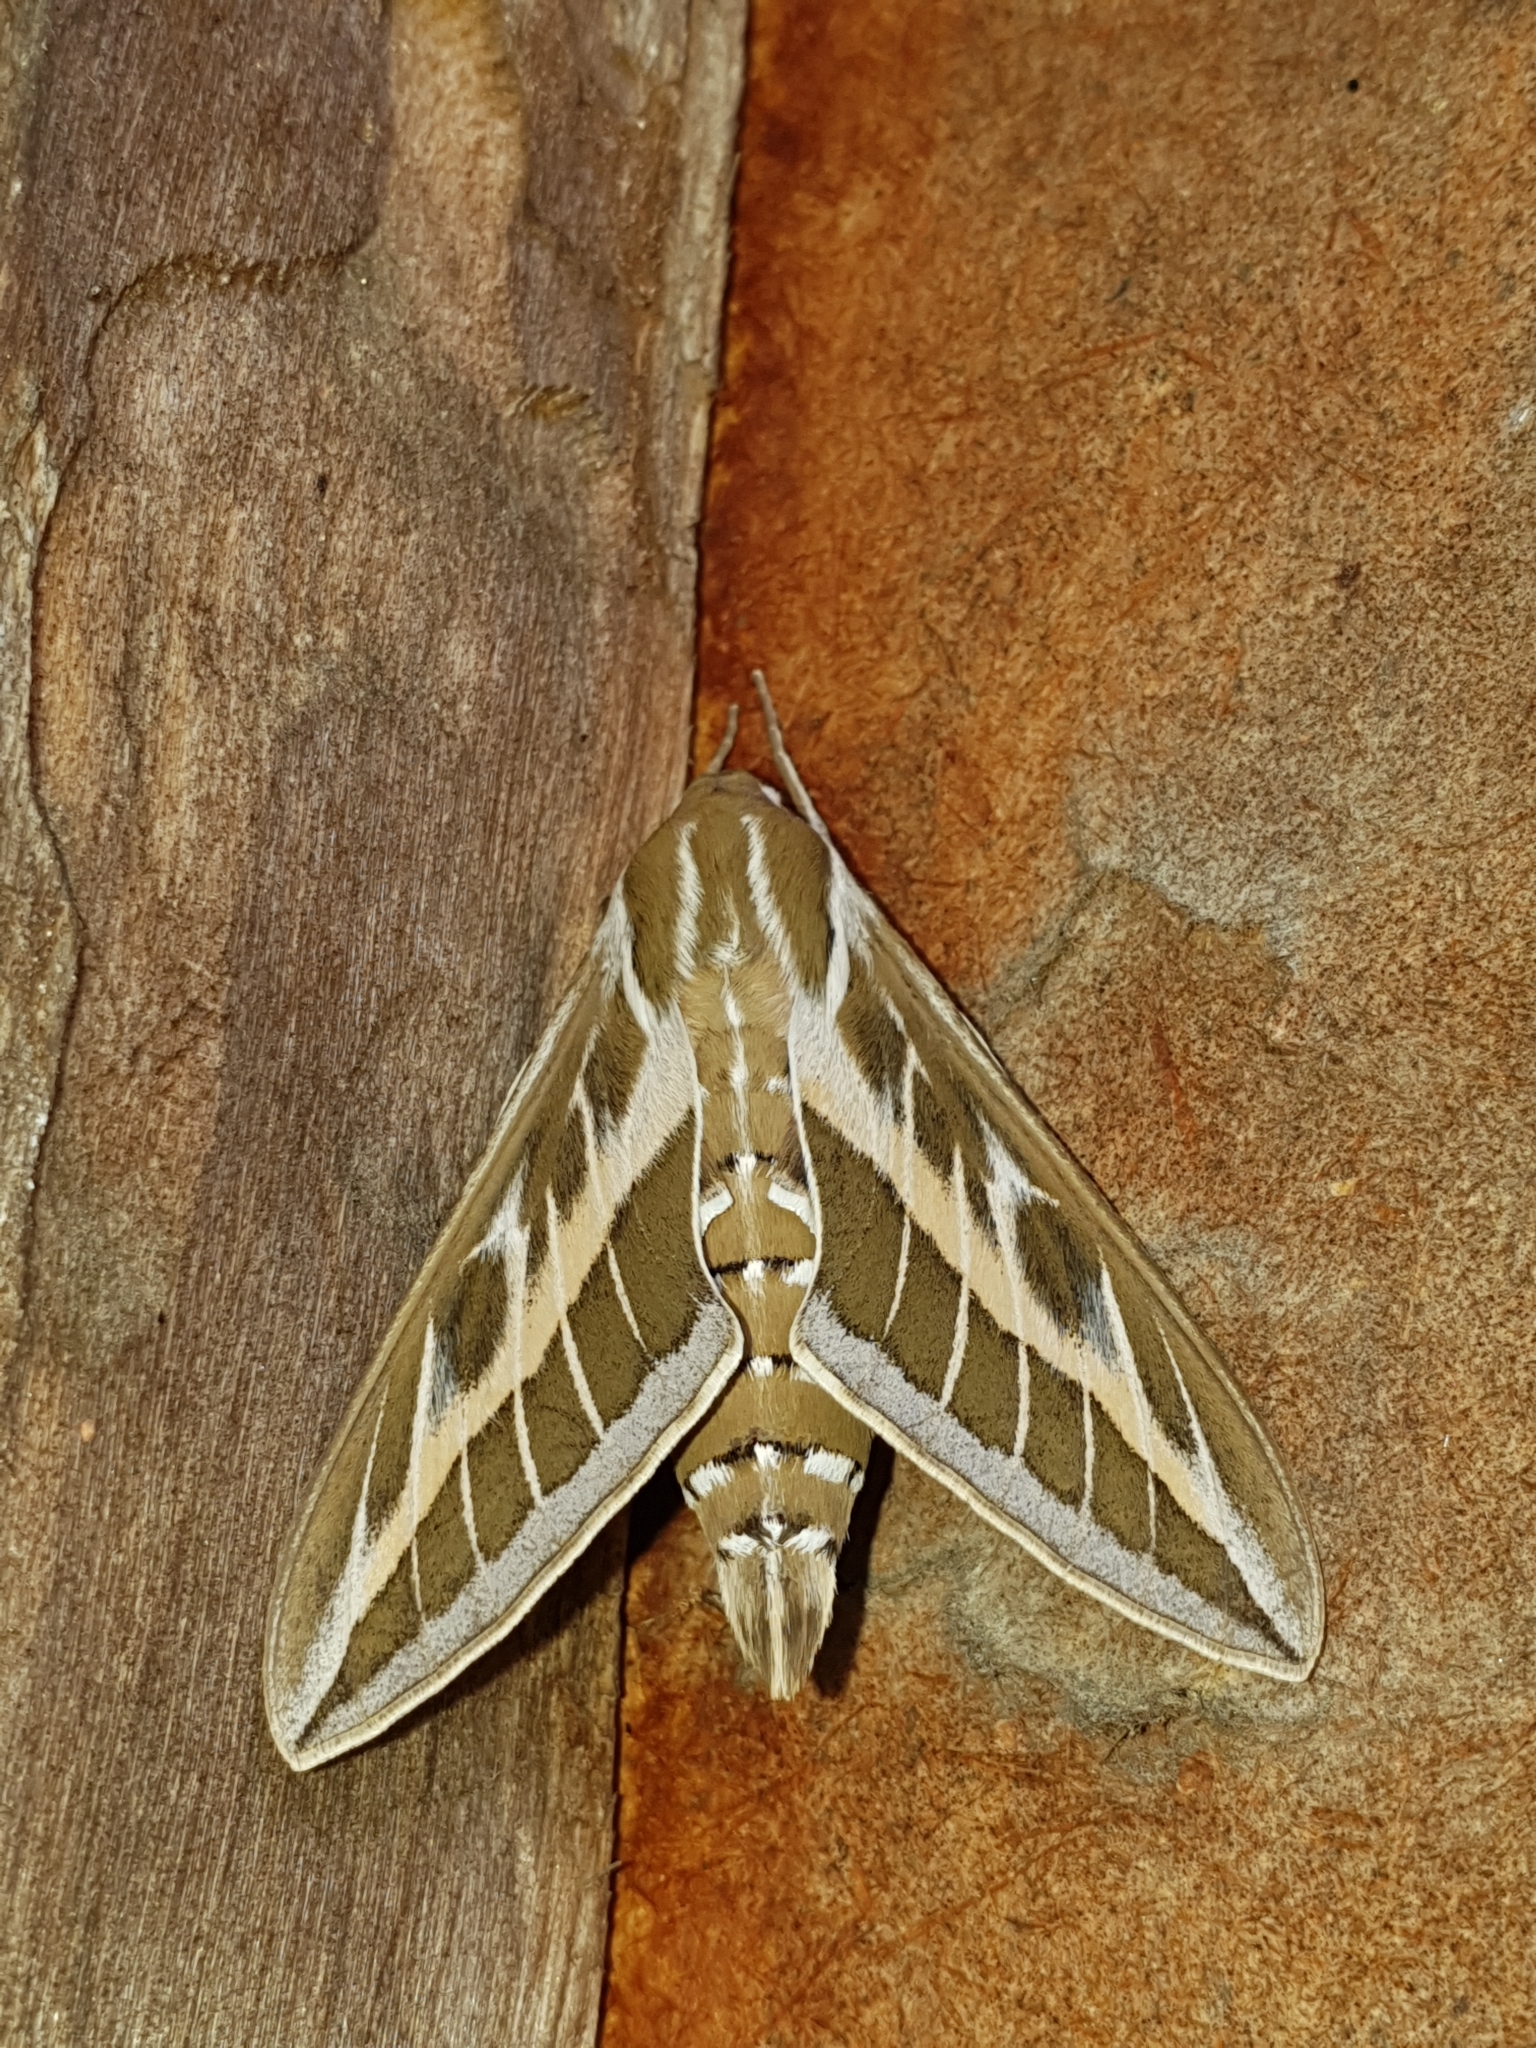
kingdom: Animalia
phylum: Arthropoda
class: Insecta
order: Lepidoptera
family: Sphingidae
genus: Hyles
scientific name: Hyles livornica
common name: Striped hawk-moth
